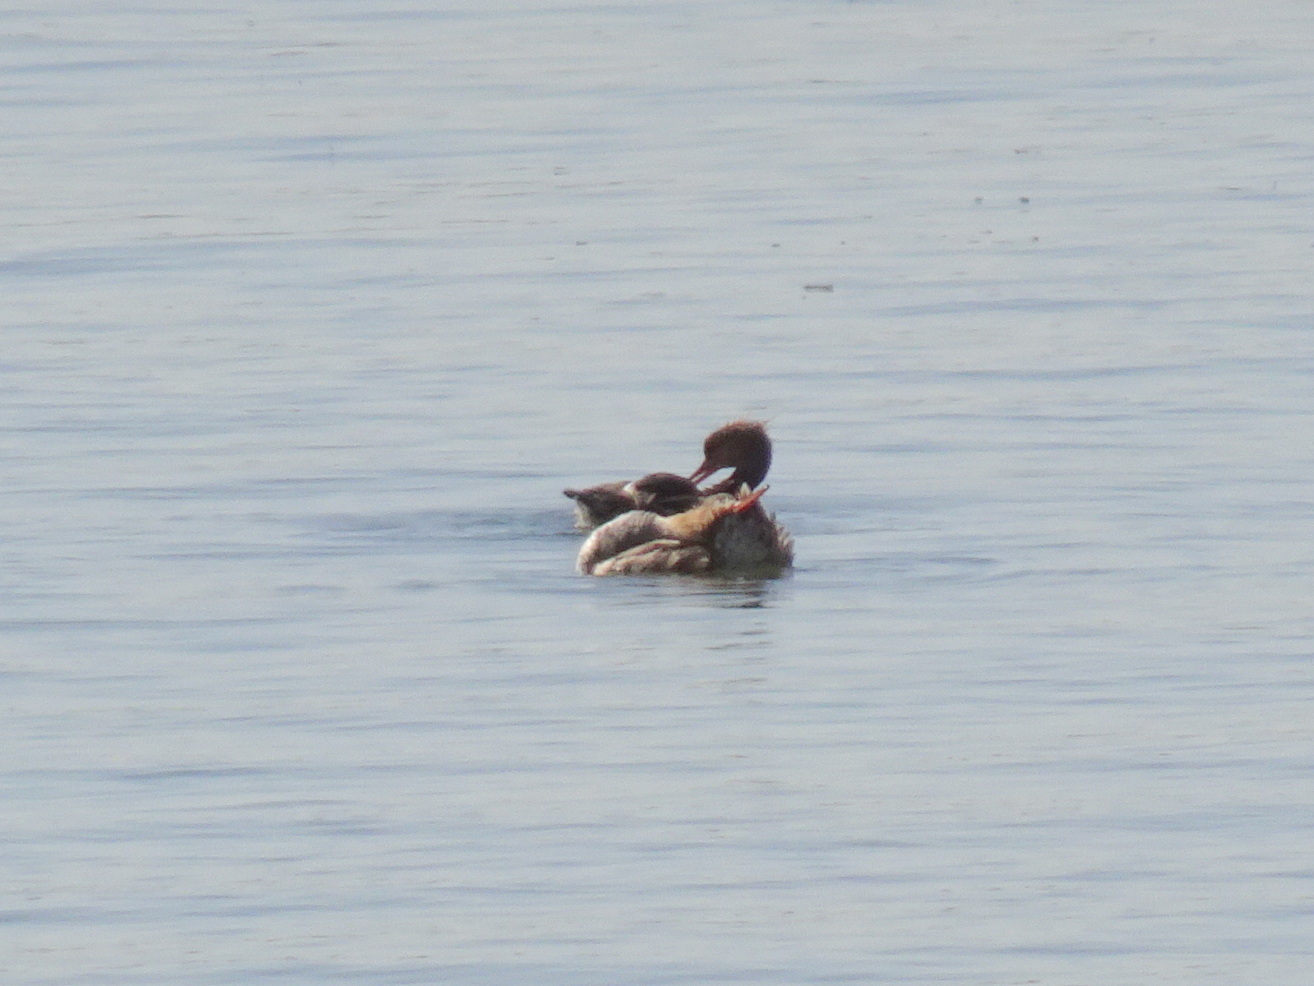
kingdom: Animalia
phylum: Chordata
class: Aves
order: Anseriformes
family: Anatidae
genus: Mergus
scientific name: Mergus serrator
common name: Red-breasted merganser
